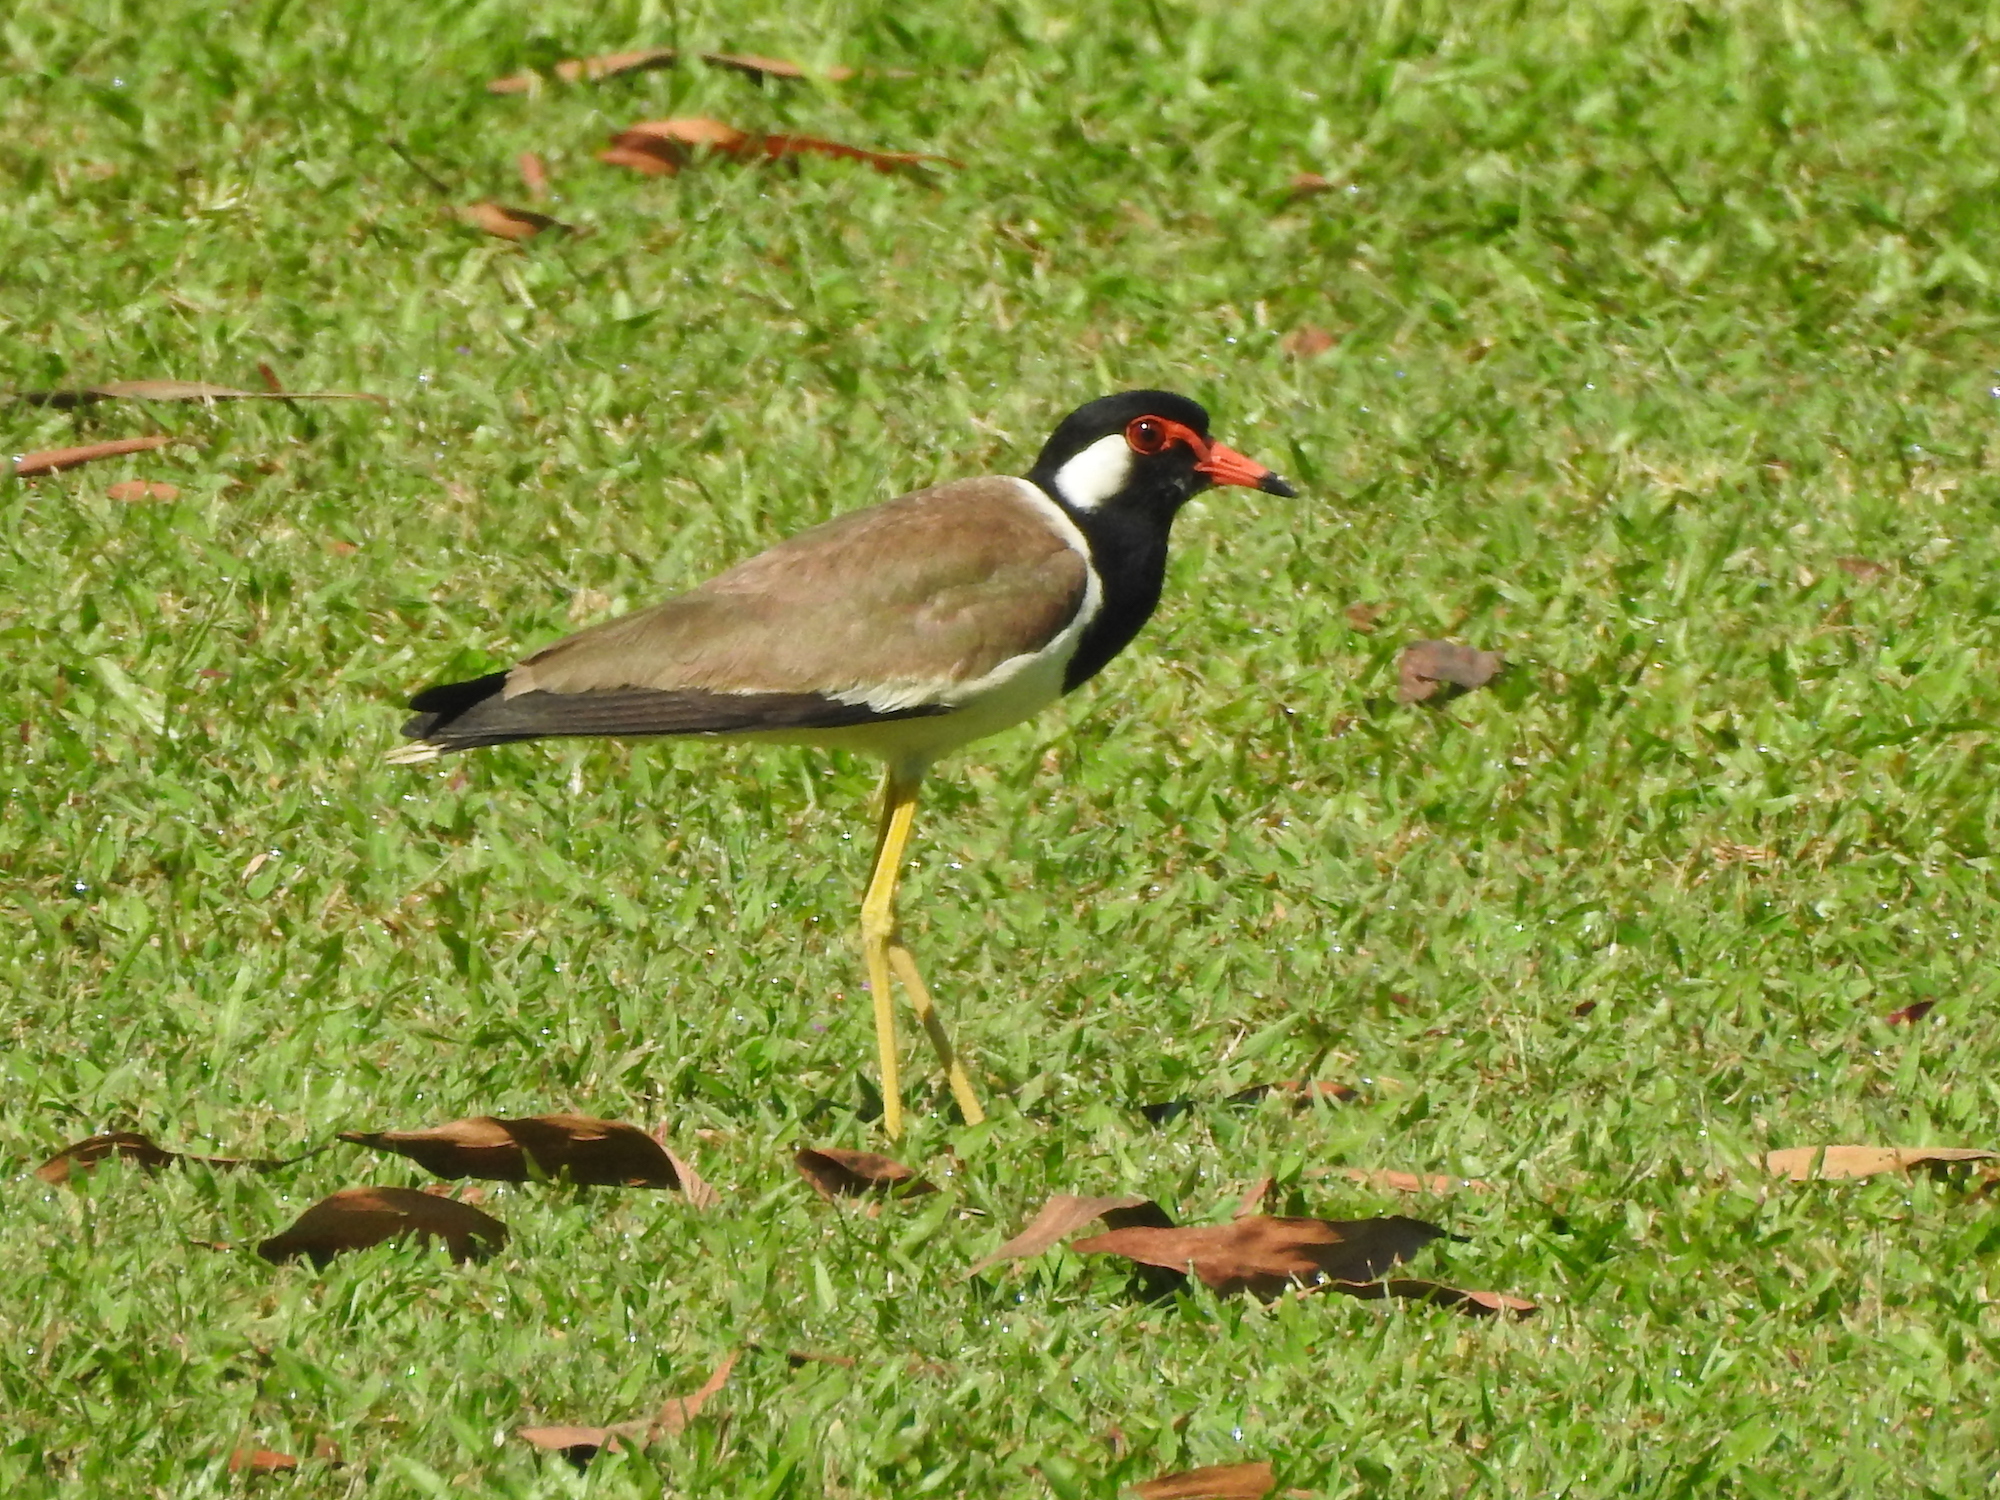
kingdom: Animalia
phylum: Chordata
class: Aves
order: Charadriiformes
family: Charadriidae
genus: Vanellus
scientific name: Vanellus indicus
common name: Red-wattled lapwing
